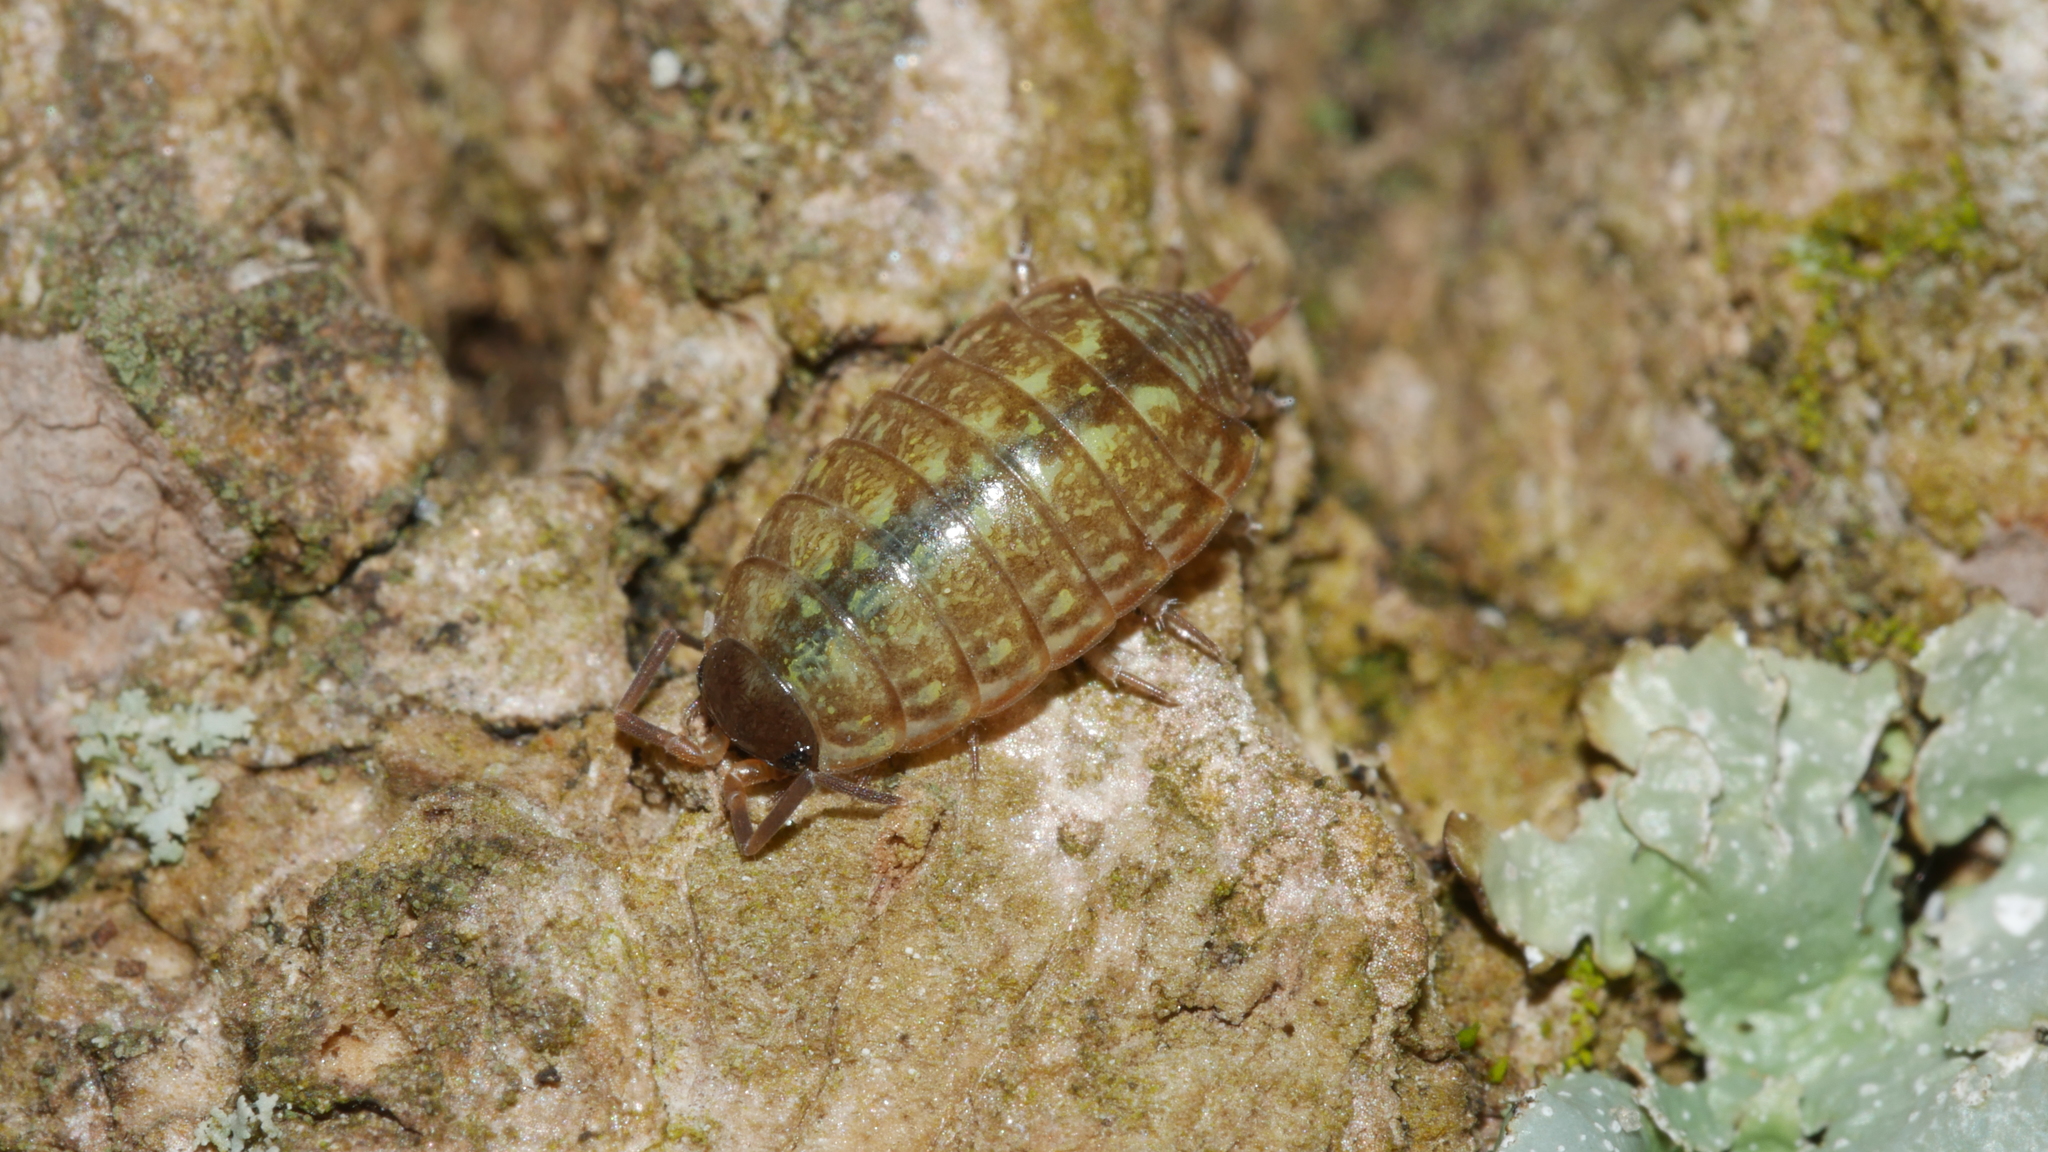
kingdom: Animalia
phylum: Arthropoda
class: Malacostraca
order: Isopoda
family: Philosciidae
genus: Philoscia
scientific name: Philoscia muscorum
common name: Common striped woodlouse
